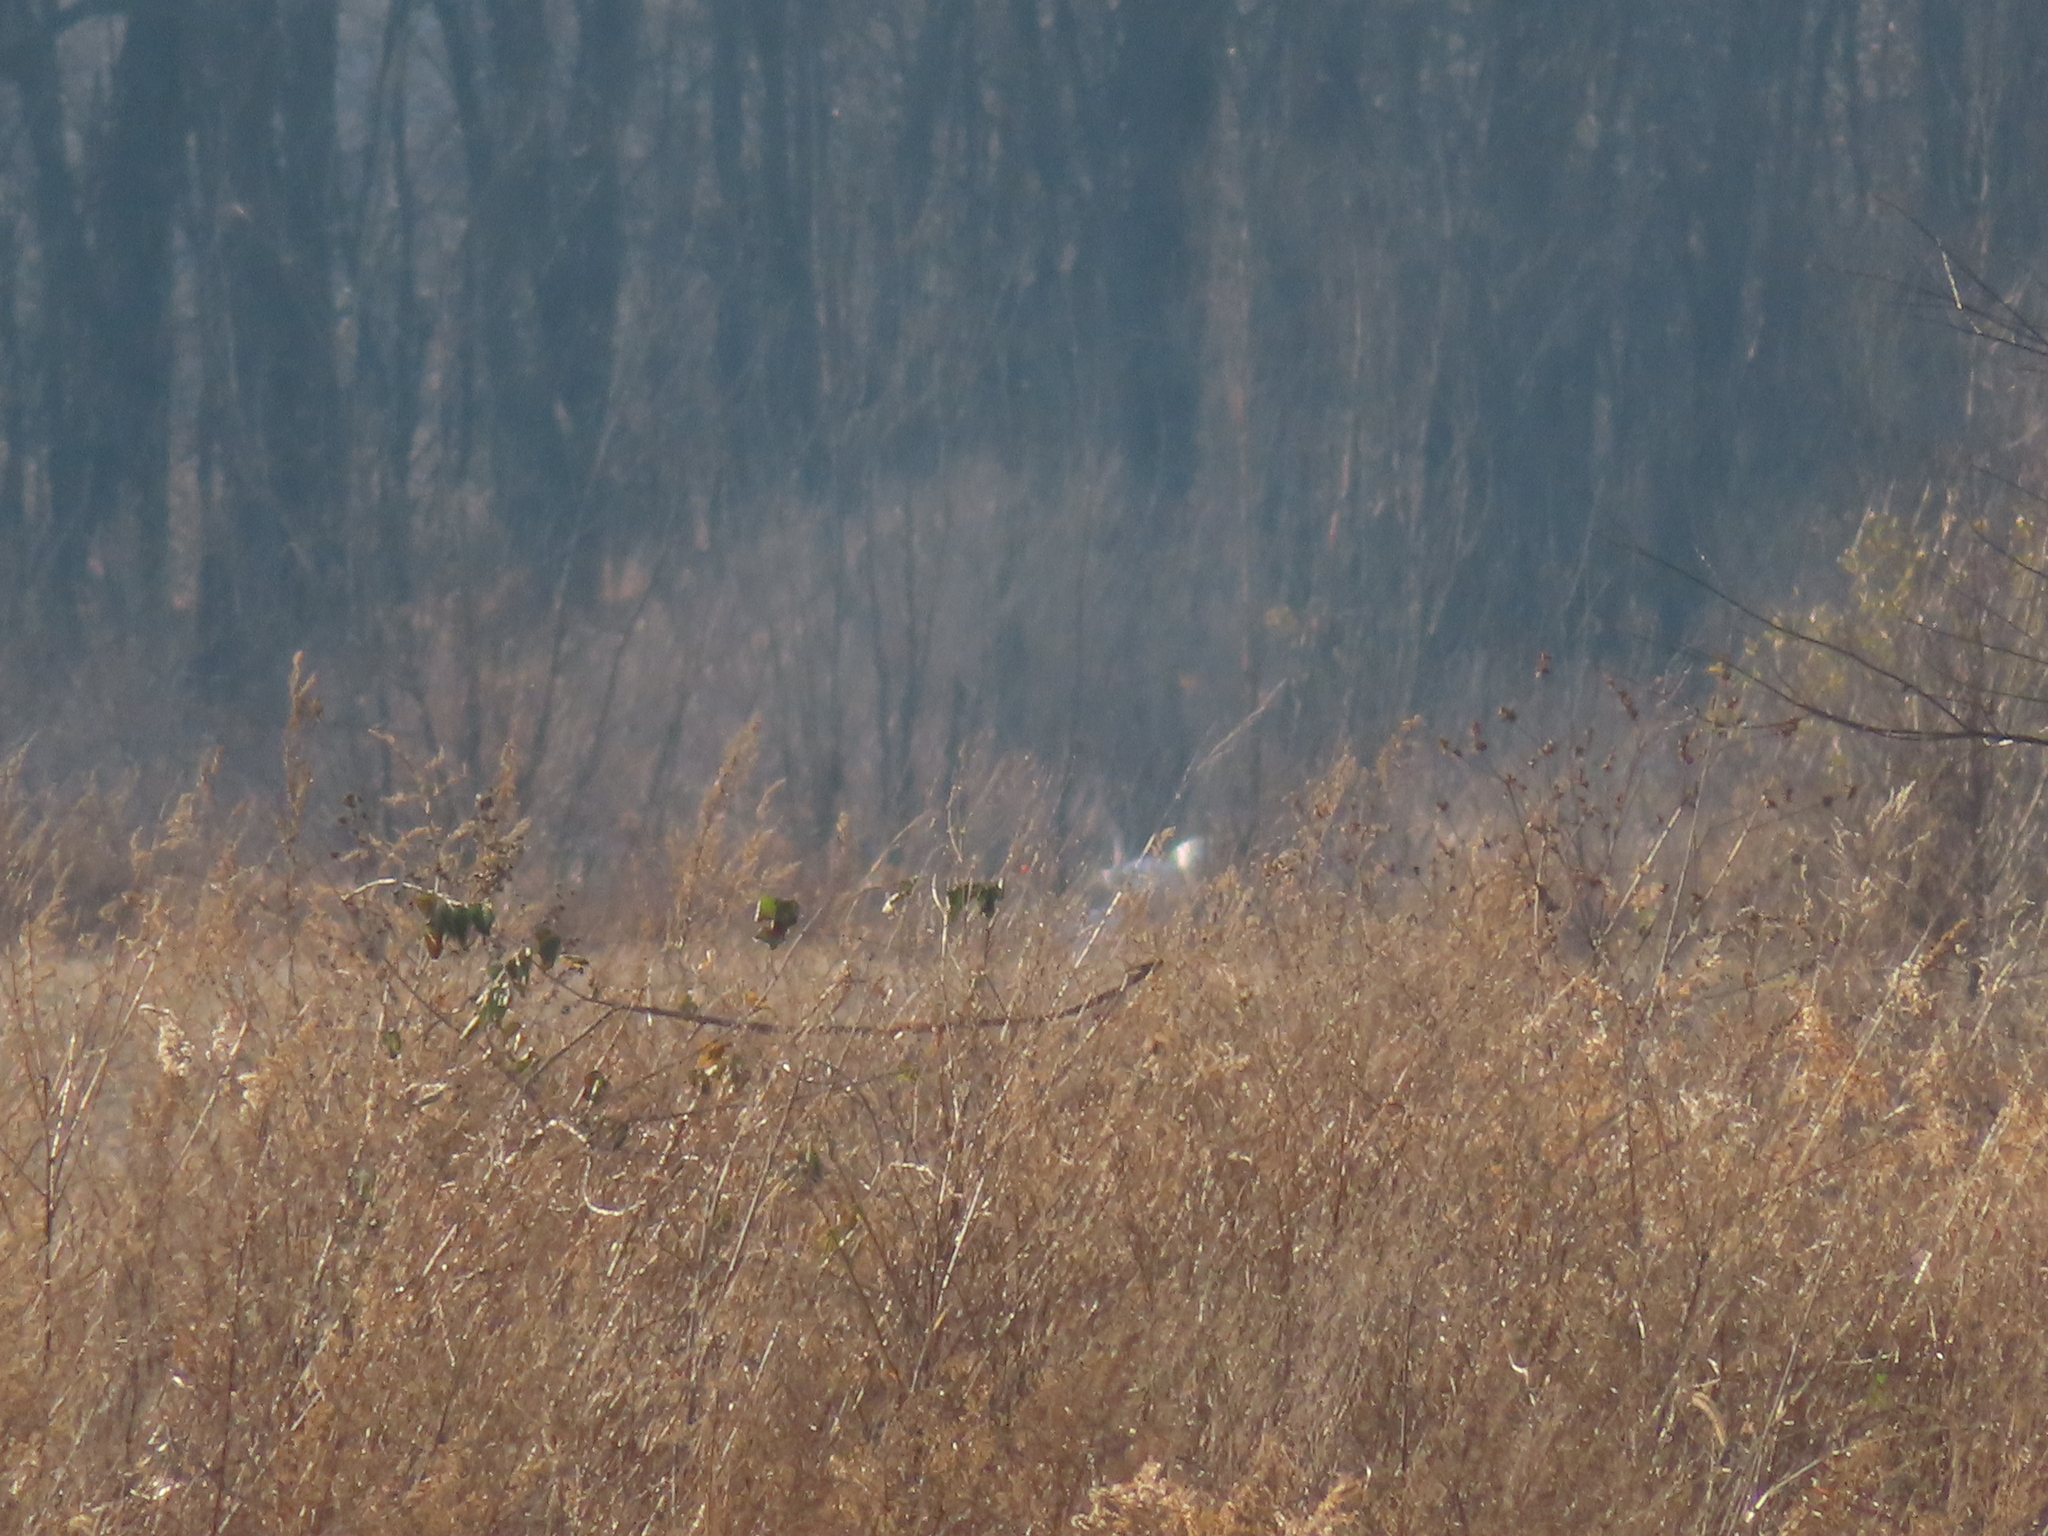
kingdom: Animalia
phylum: Chordata
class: Aves
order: Anseriformes
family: Anatidae
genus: Anser
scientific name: Anser caerulescens
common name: Snow goose
